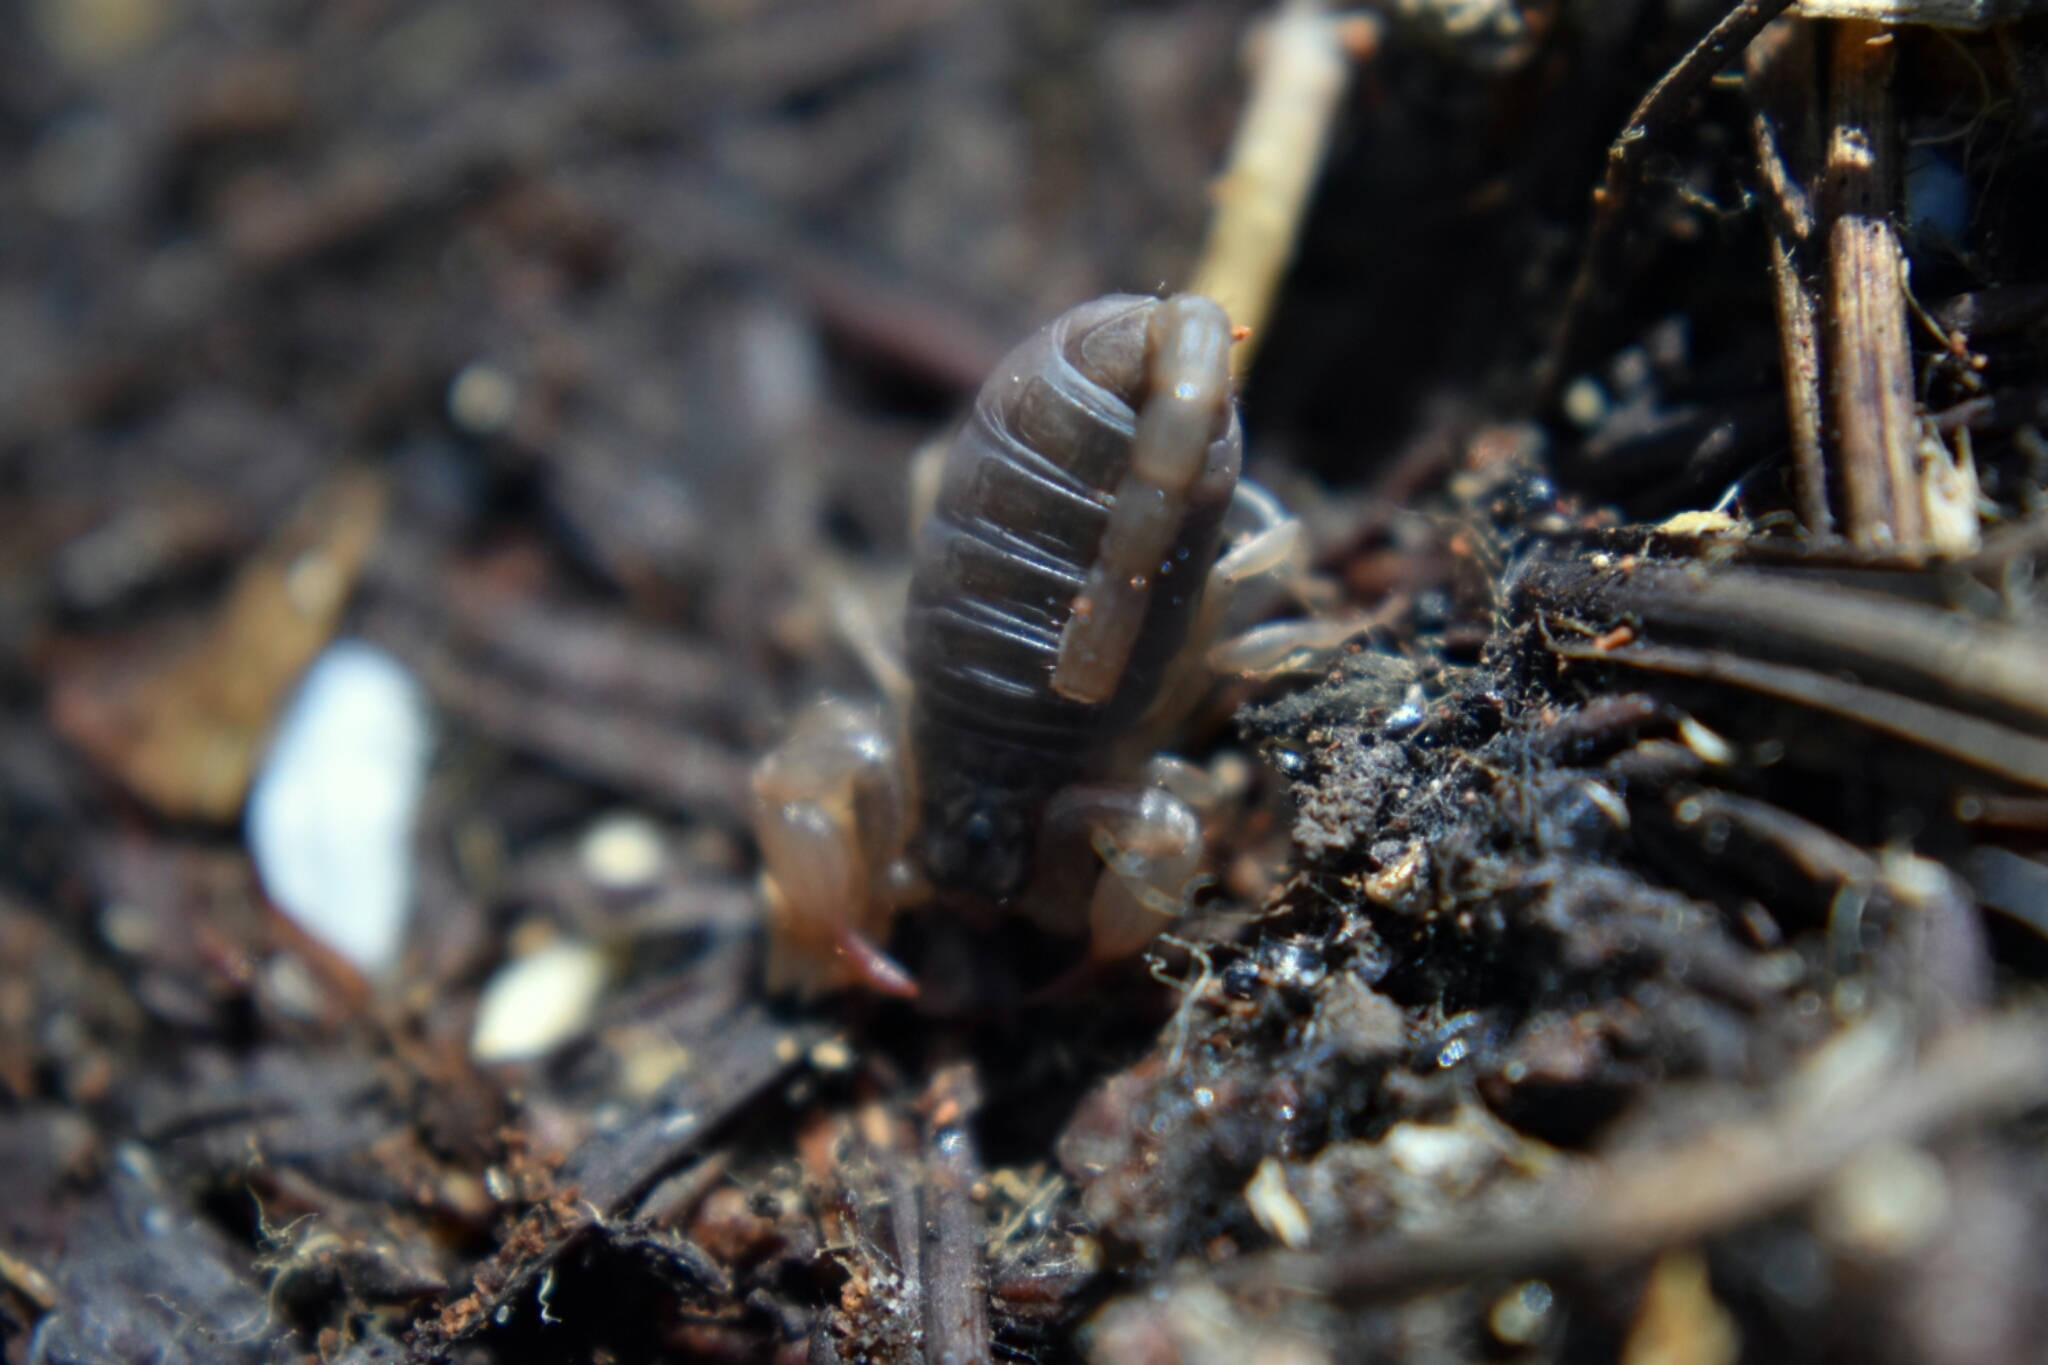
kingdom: Animalia
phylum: Arthropoda
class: Arachnida
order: Scorpiones
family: Chactidae
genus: Uroctonus
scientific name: Uroctonus mordax
